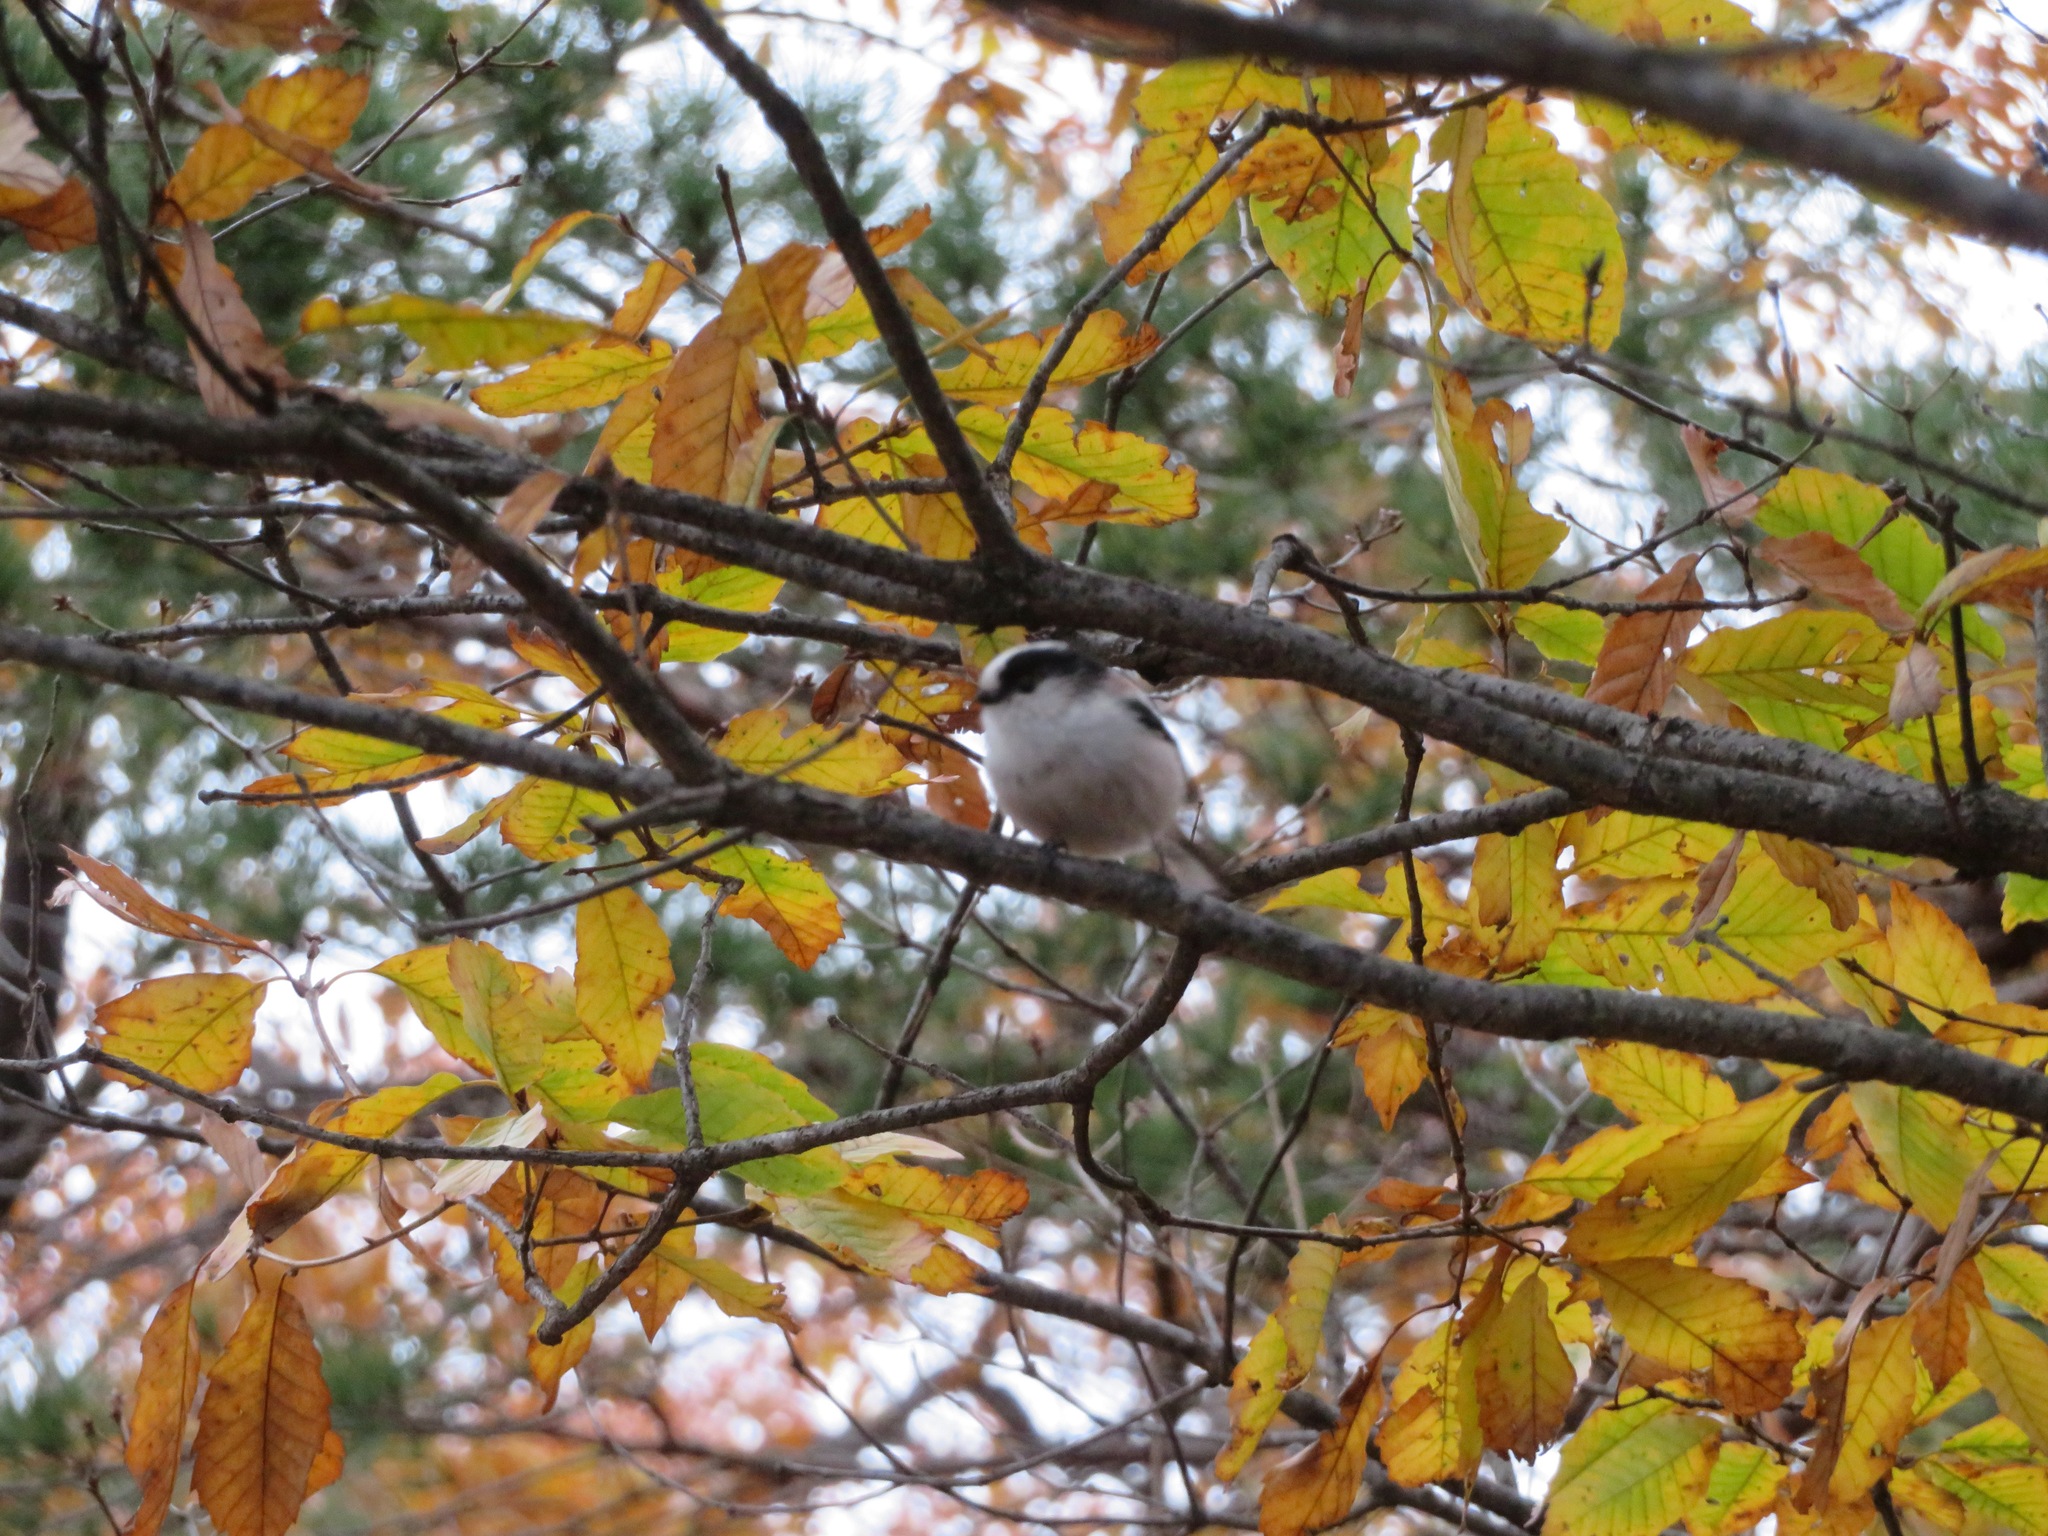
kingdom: Animalia
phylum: Chordata
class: Aves
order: Passeriformes
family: Aegithalidae
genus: Aegithalos
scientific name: Aegithalos caudatus
